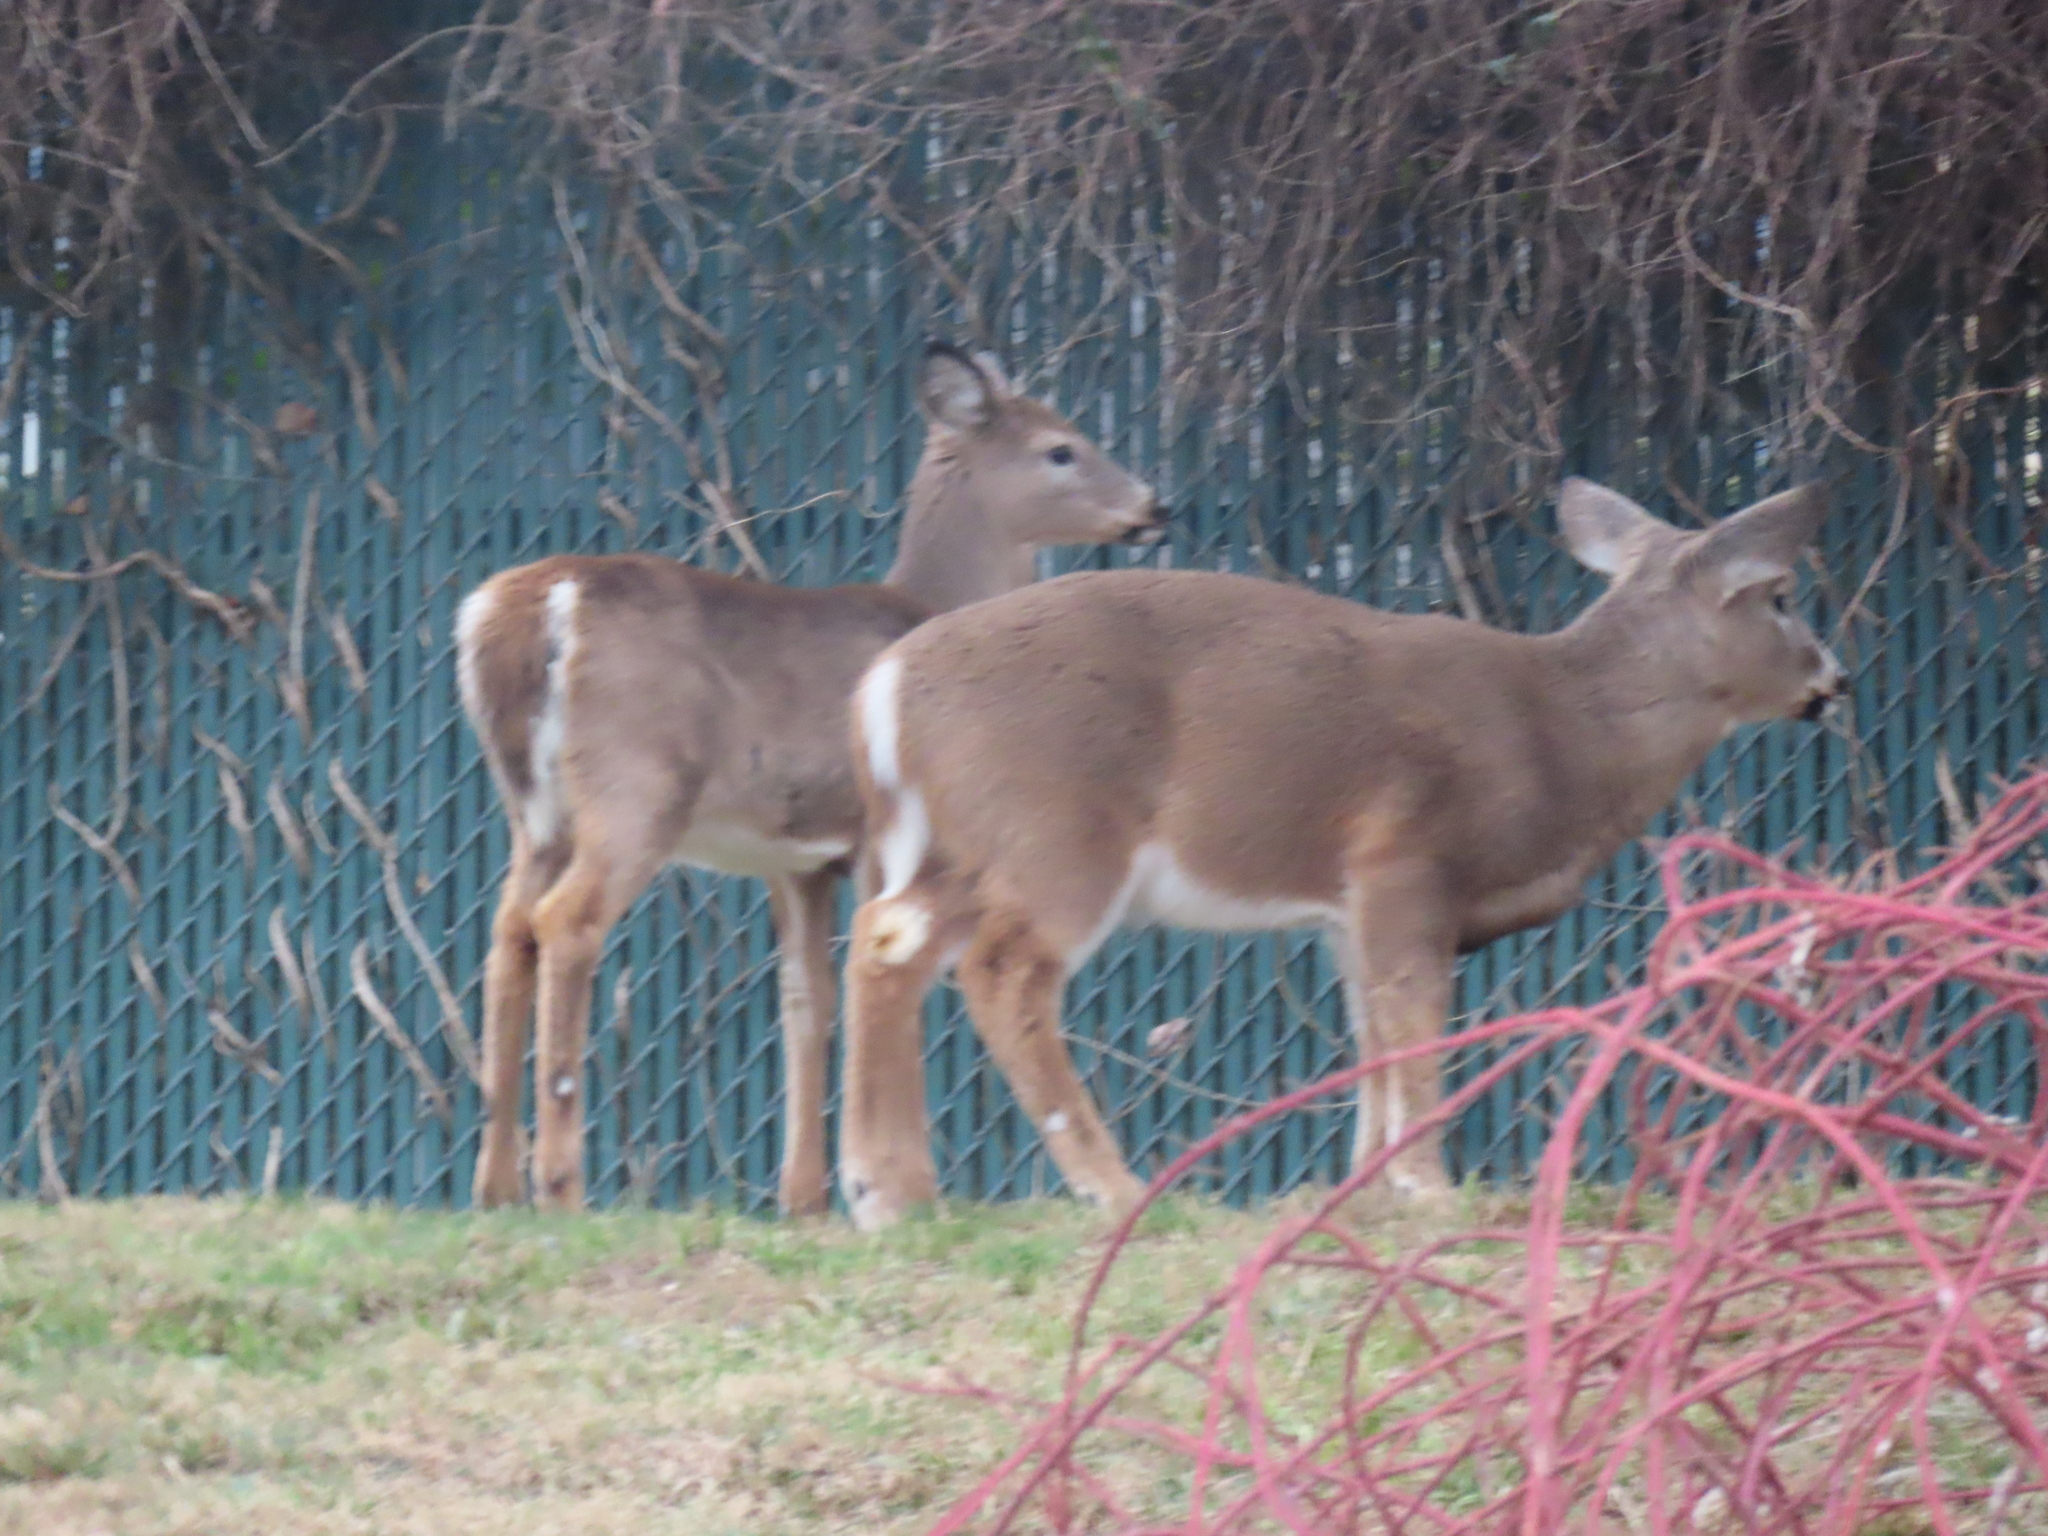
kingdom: Animalia
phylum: Chordata
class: Mammalia
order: Artiodactyla
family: Cervidae
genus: Odocoileus
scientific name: Odocoileus virginianus
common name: White-tailed deer
